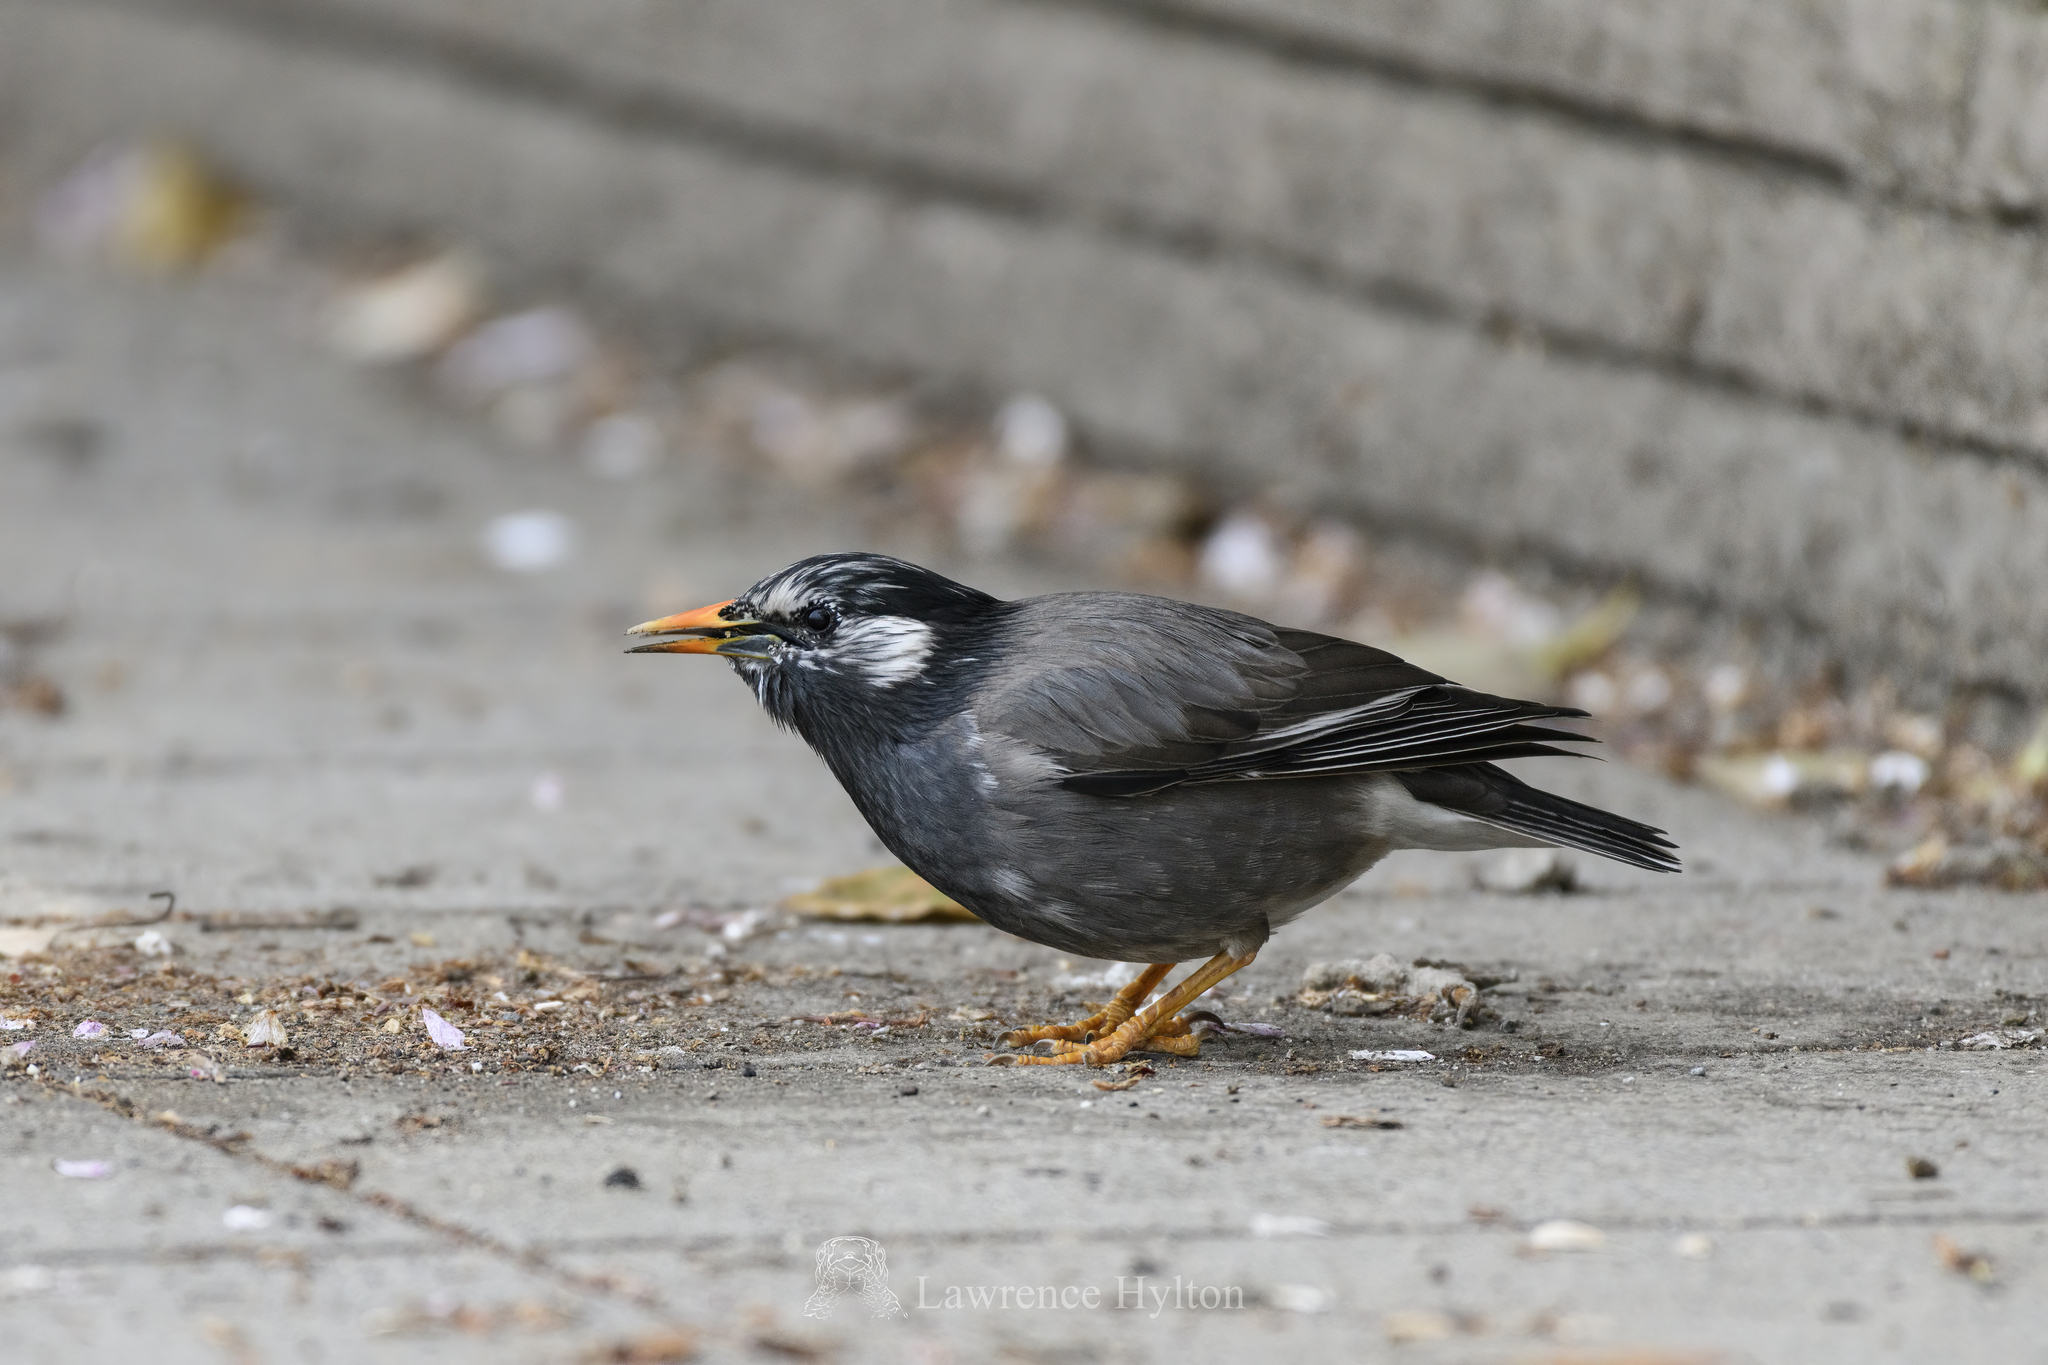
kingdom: Animalia
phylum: Chordata
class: Aves
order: Passeriformes
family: Sturnidae
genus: Spodiopsar
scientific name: Spodiopsar cineraceus
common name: White-cheeked starling
